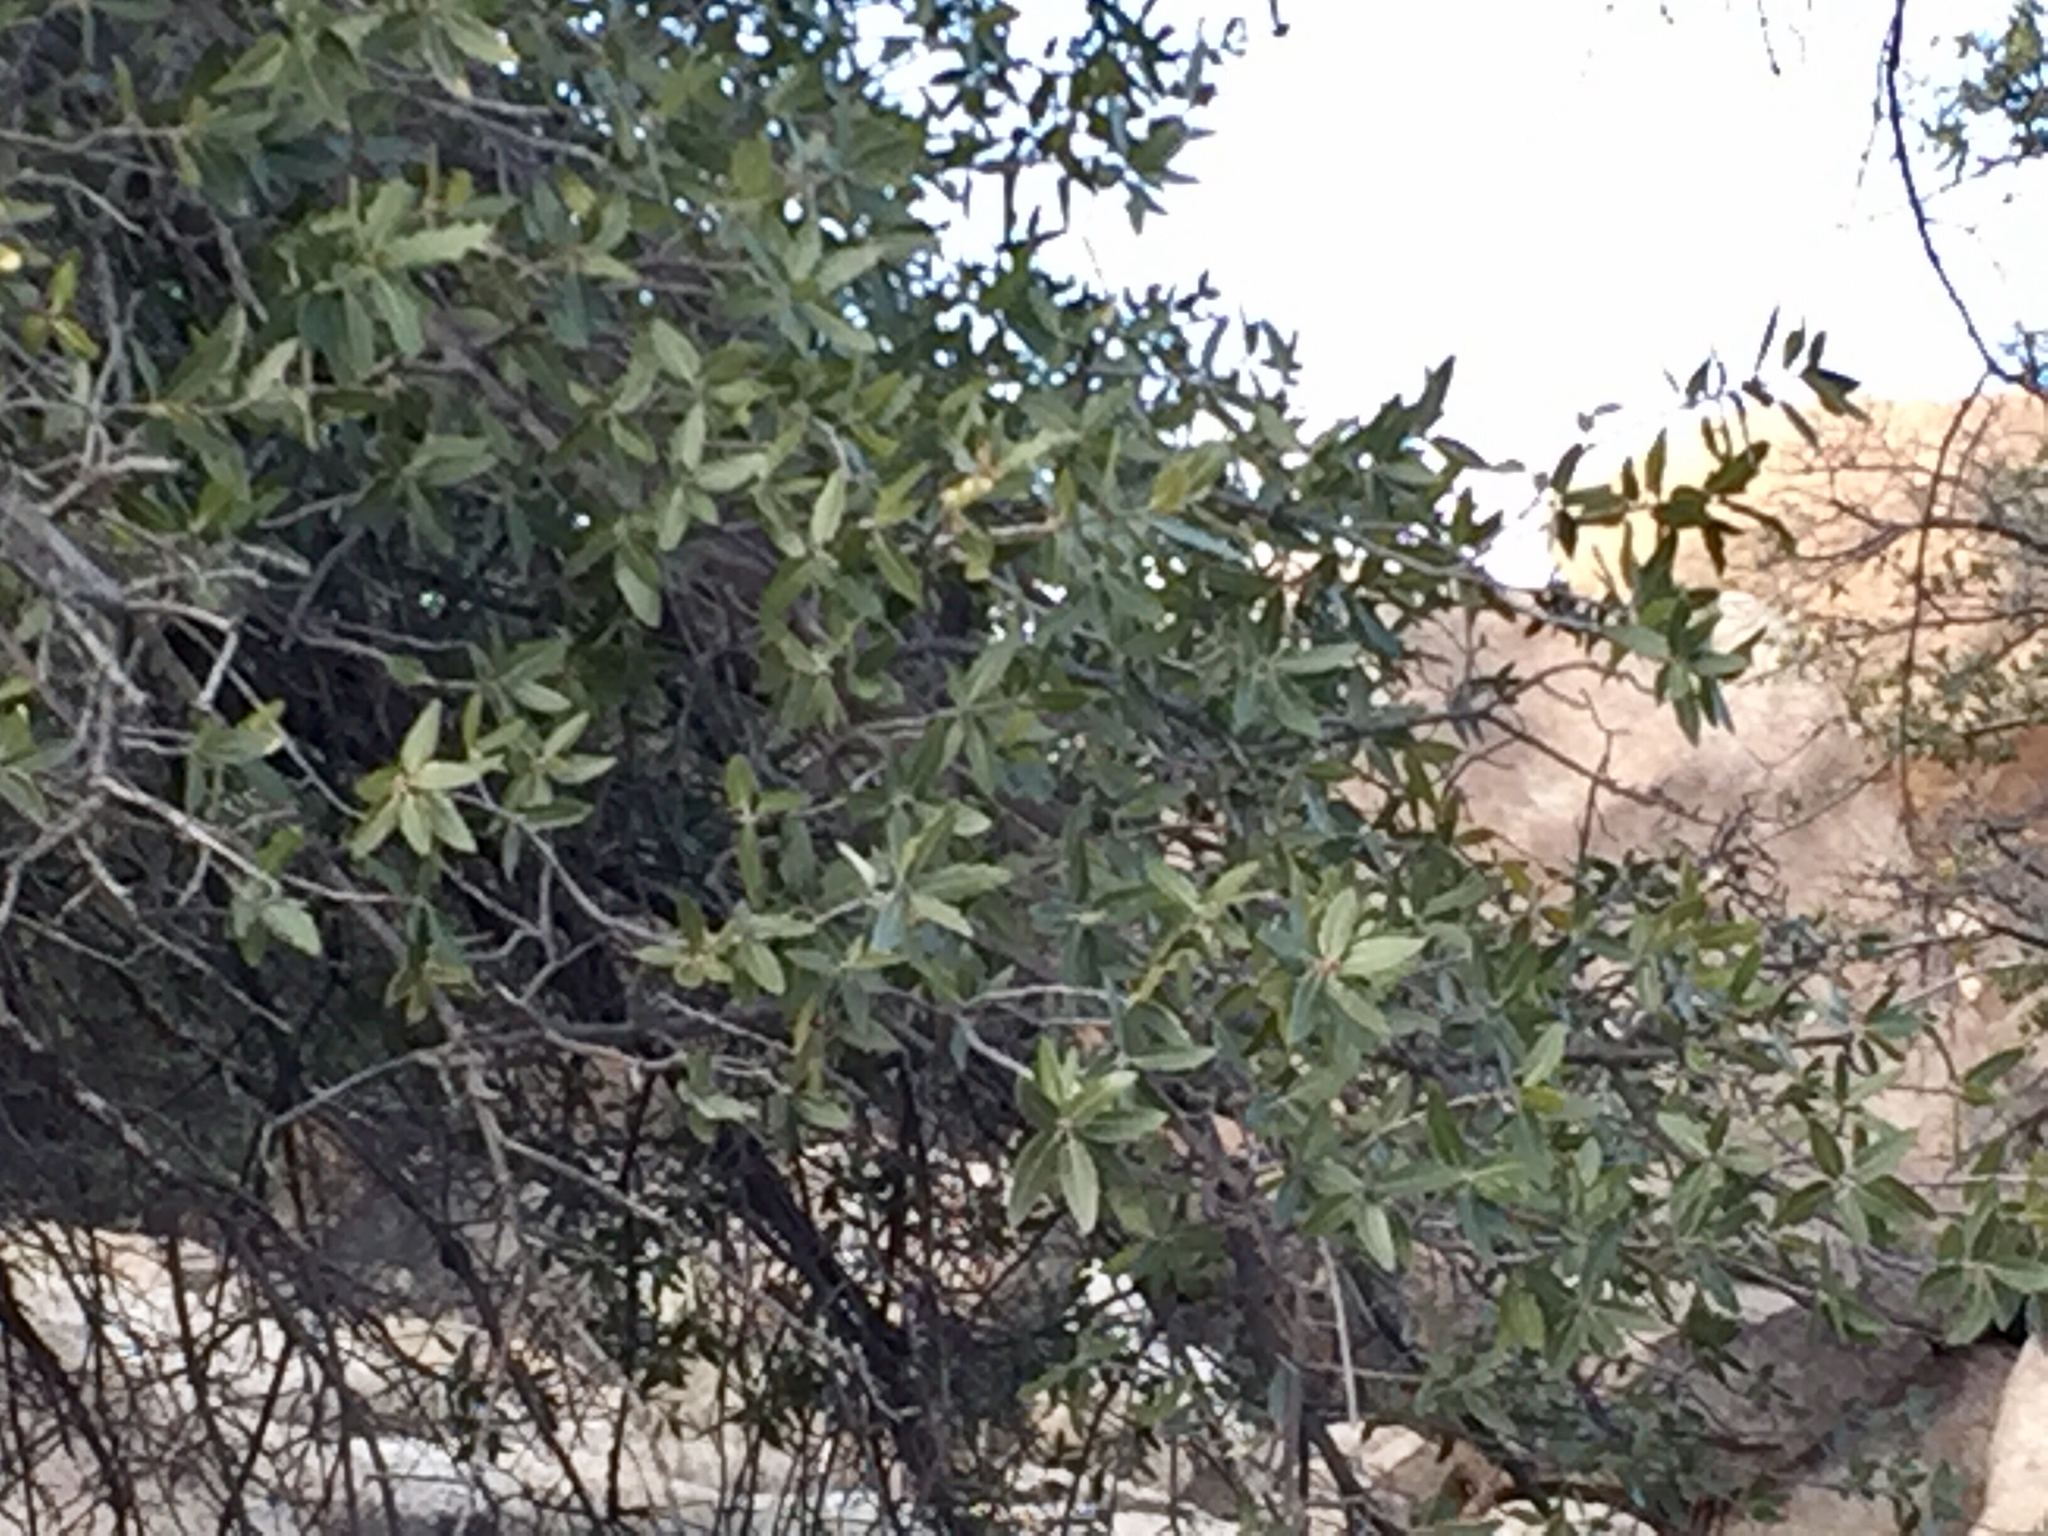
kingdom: Plantae
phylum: Tracheophyta
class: Magnoliopsida
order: Fagales
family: Fagaceae
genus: Quercus
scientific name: Quercus emoryi
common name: Emory oak
